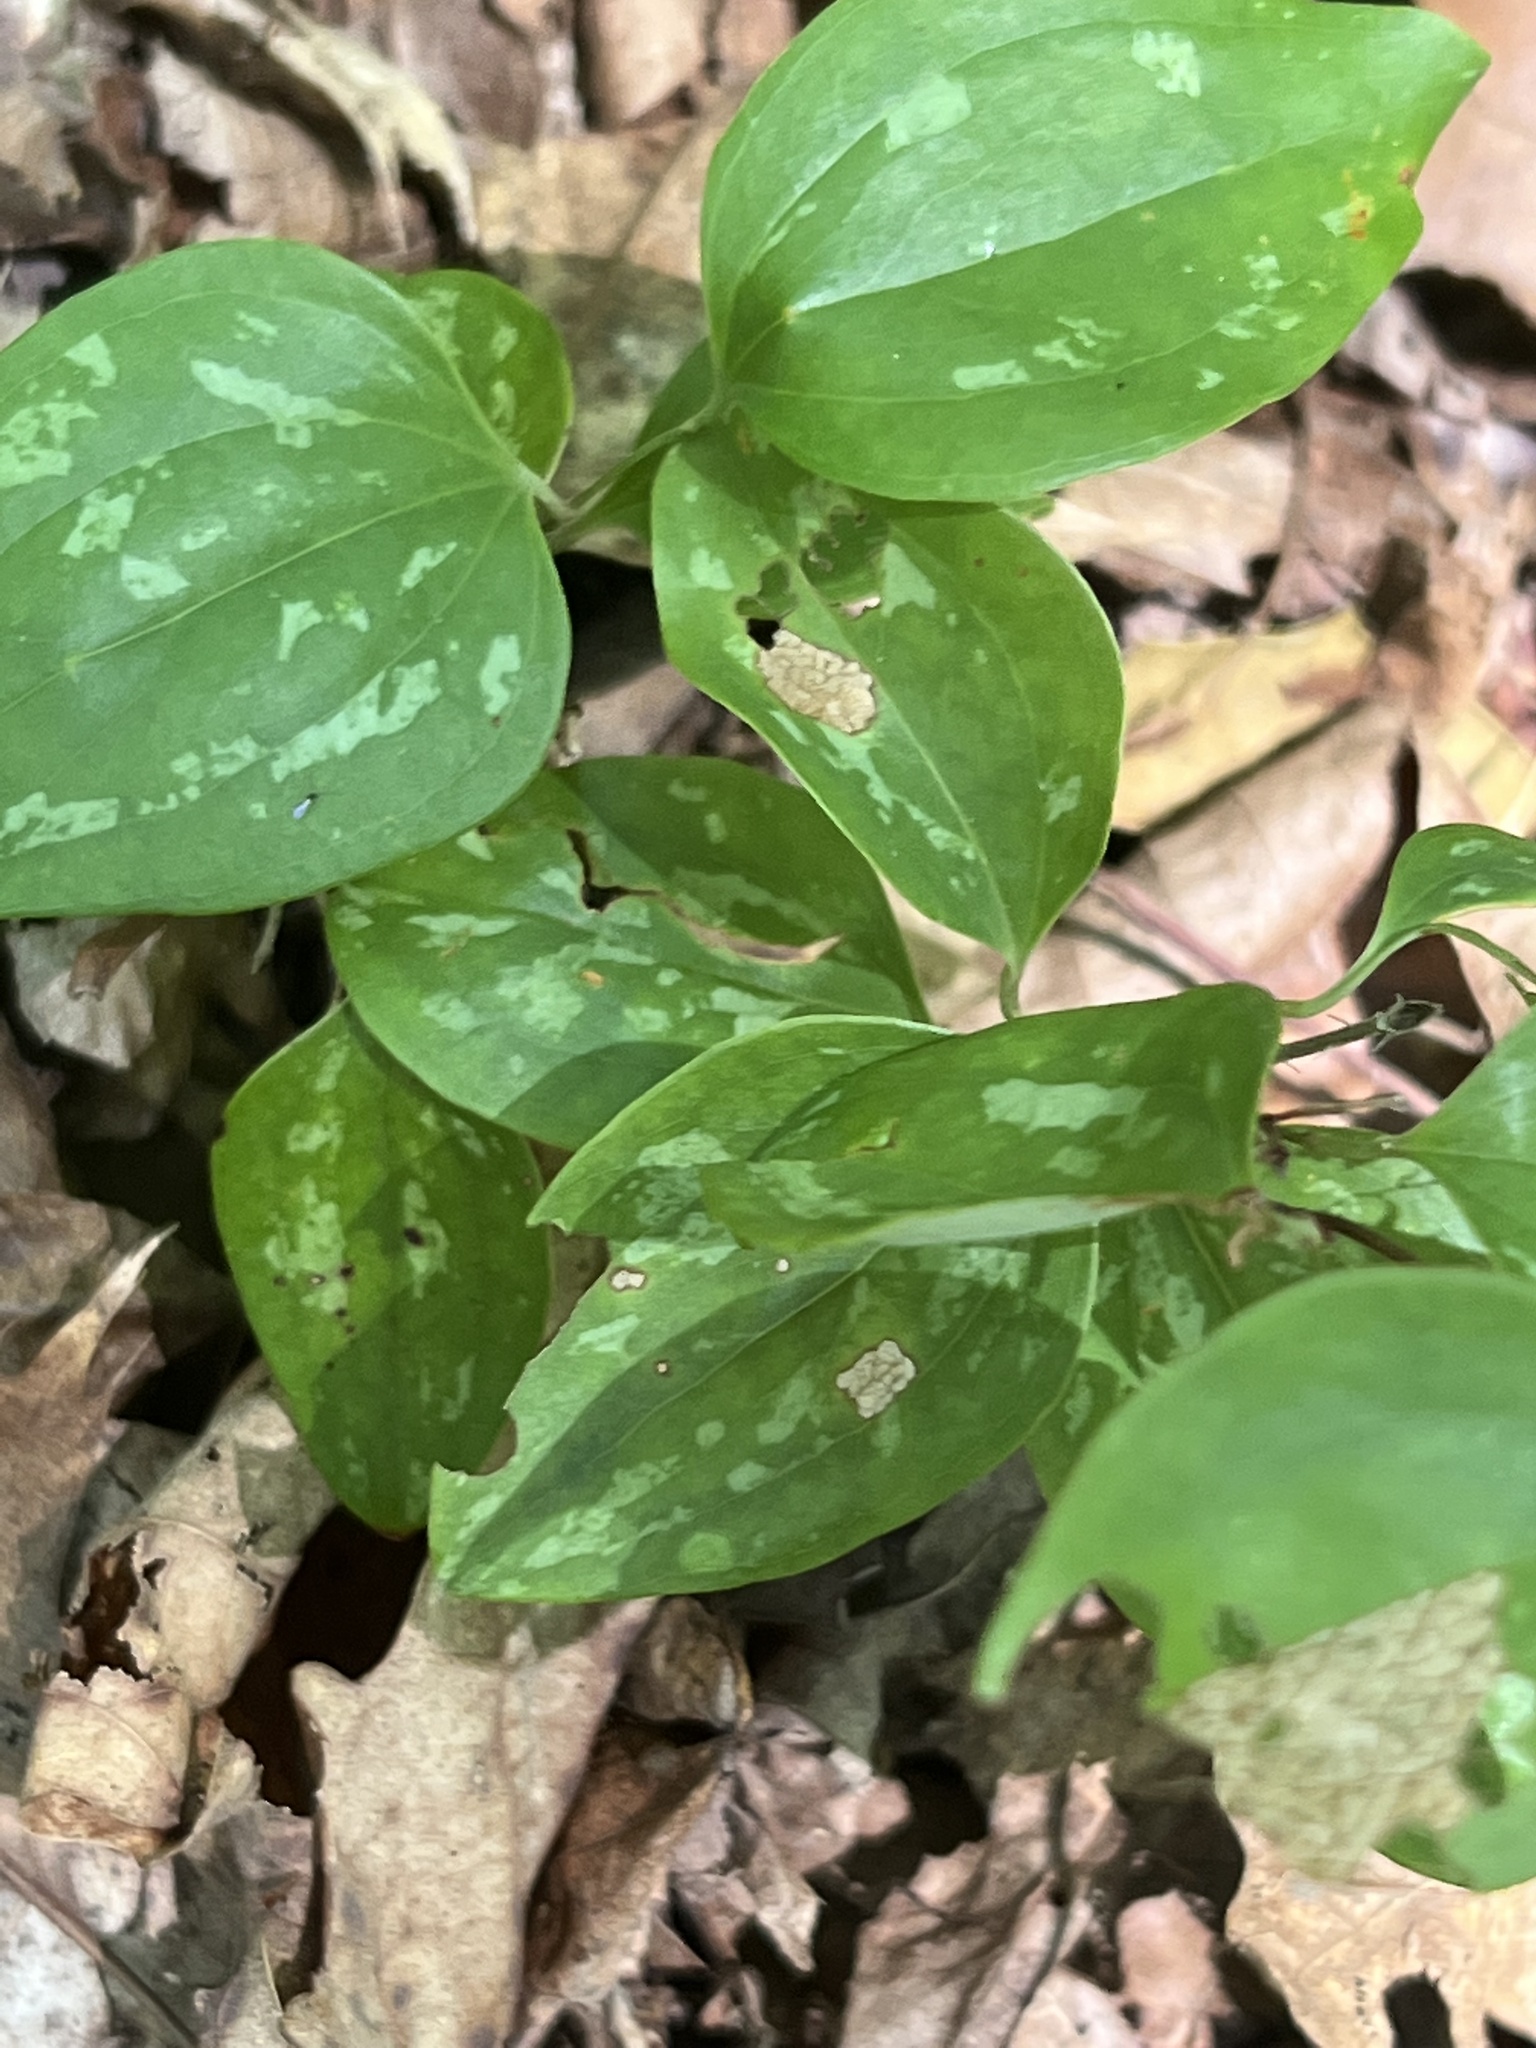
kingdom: Plantae
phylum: Tracheophyta
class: Liliopsida
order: Liliales
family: Smilacaceae
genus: Smilax
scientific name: Smilax glauca
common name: Cat greenbrier
